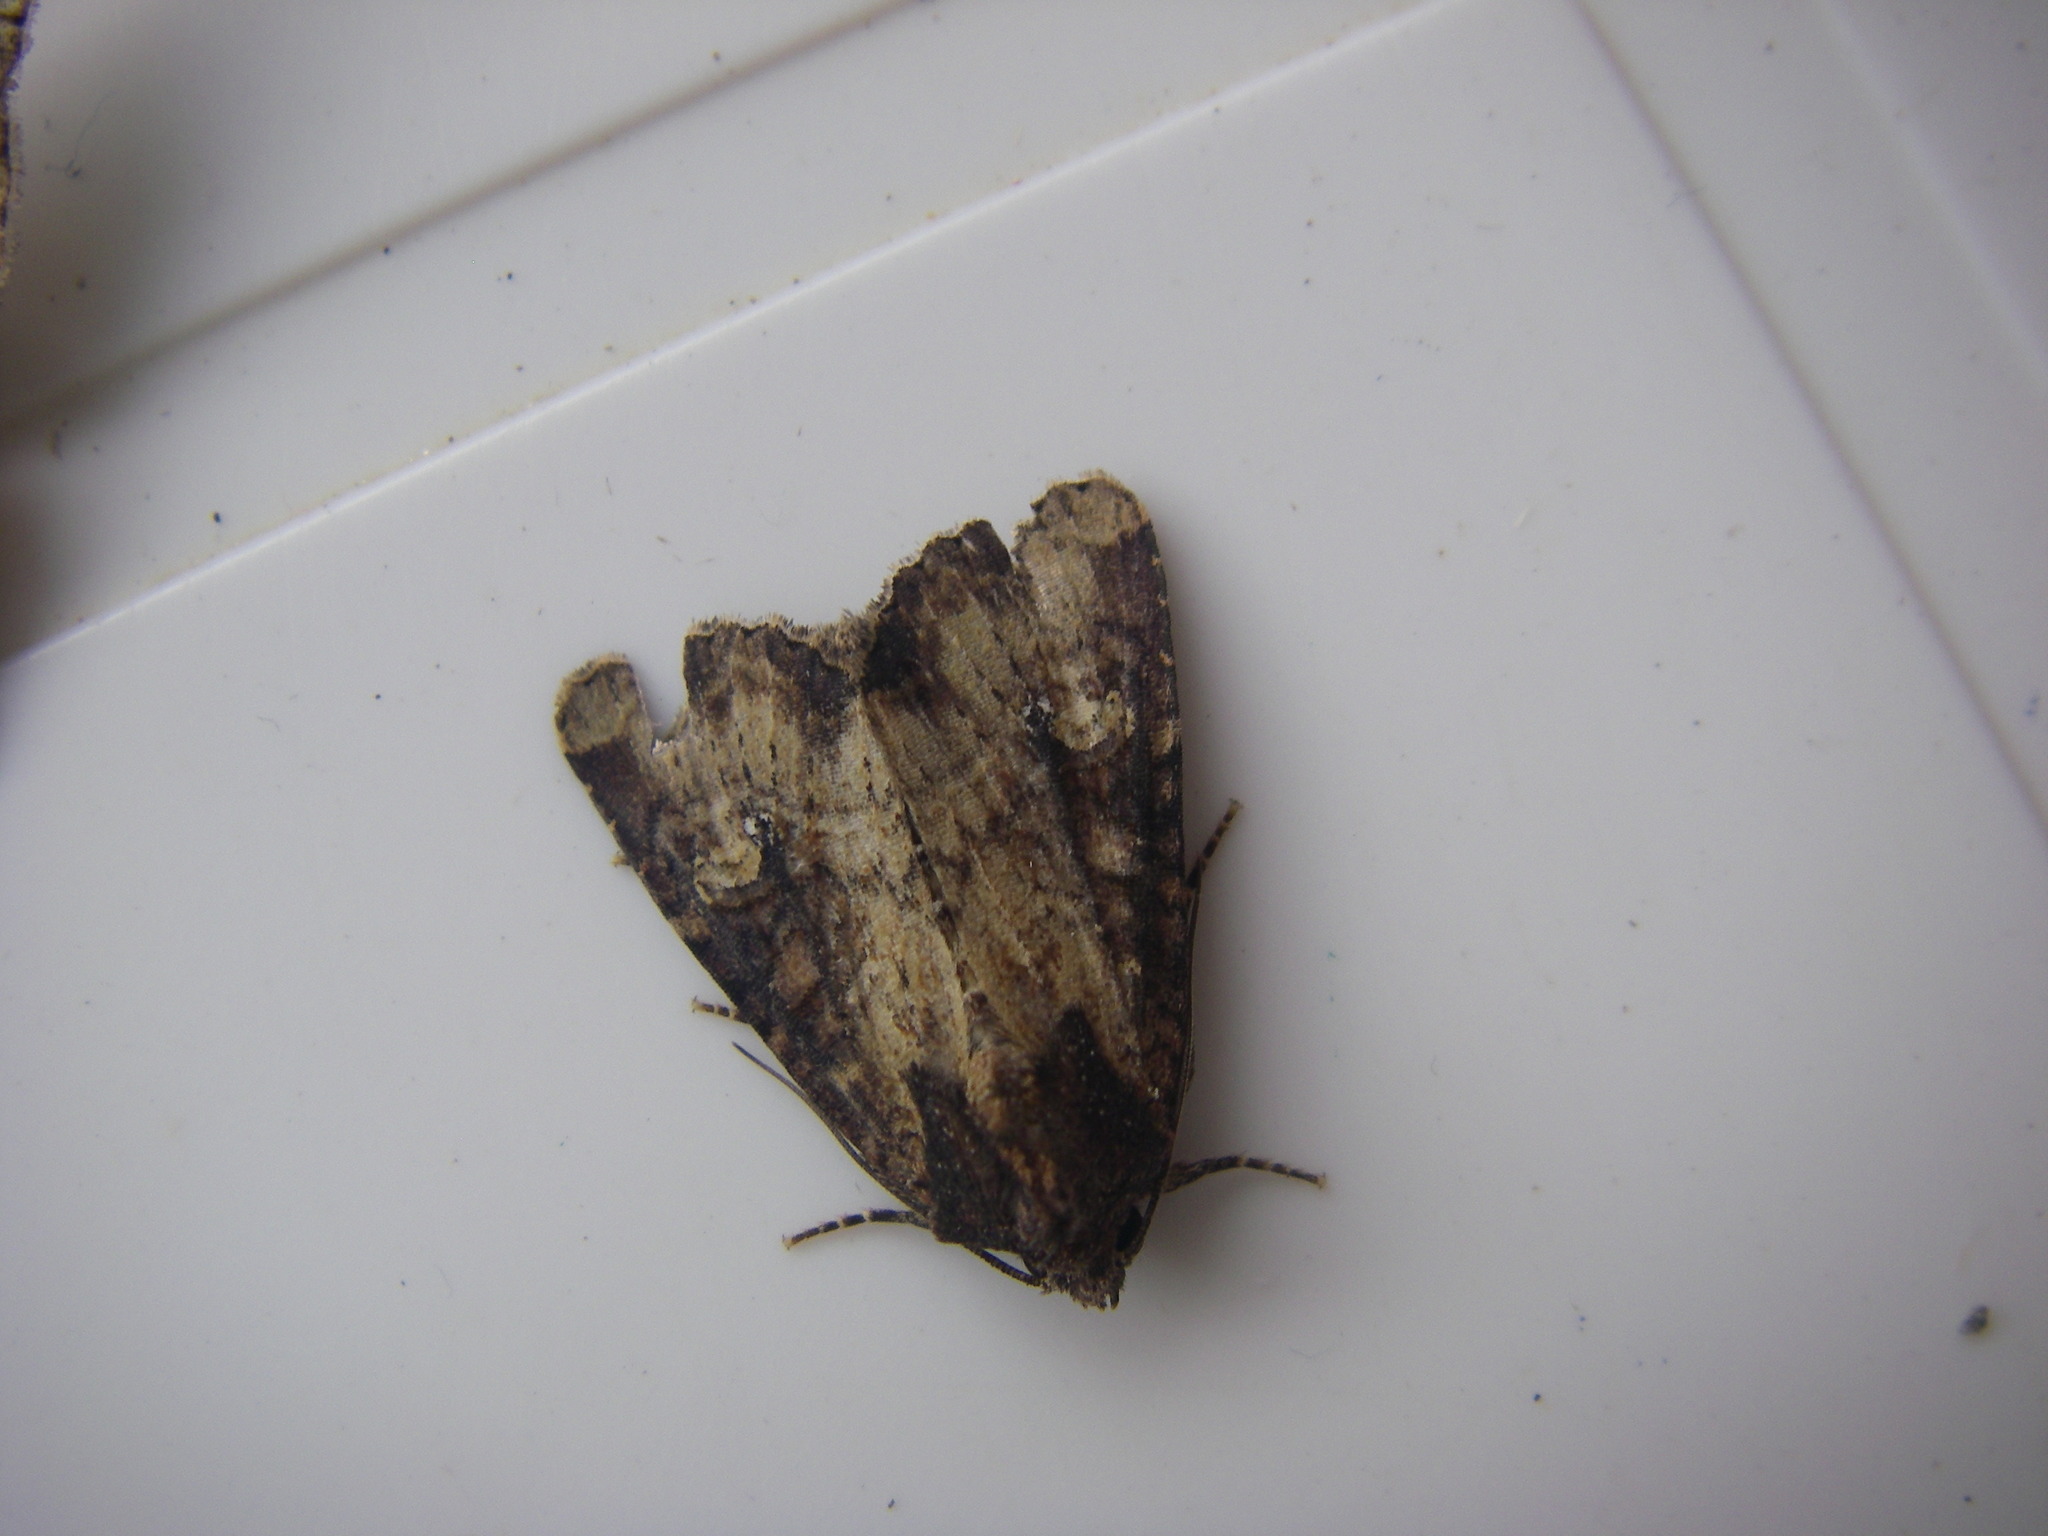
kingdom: Animalia
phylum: Arthropoda
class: Insecta
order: Lepidoptera
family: Noctuidae
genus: Mesapamea
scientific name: Mesapamea
